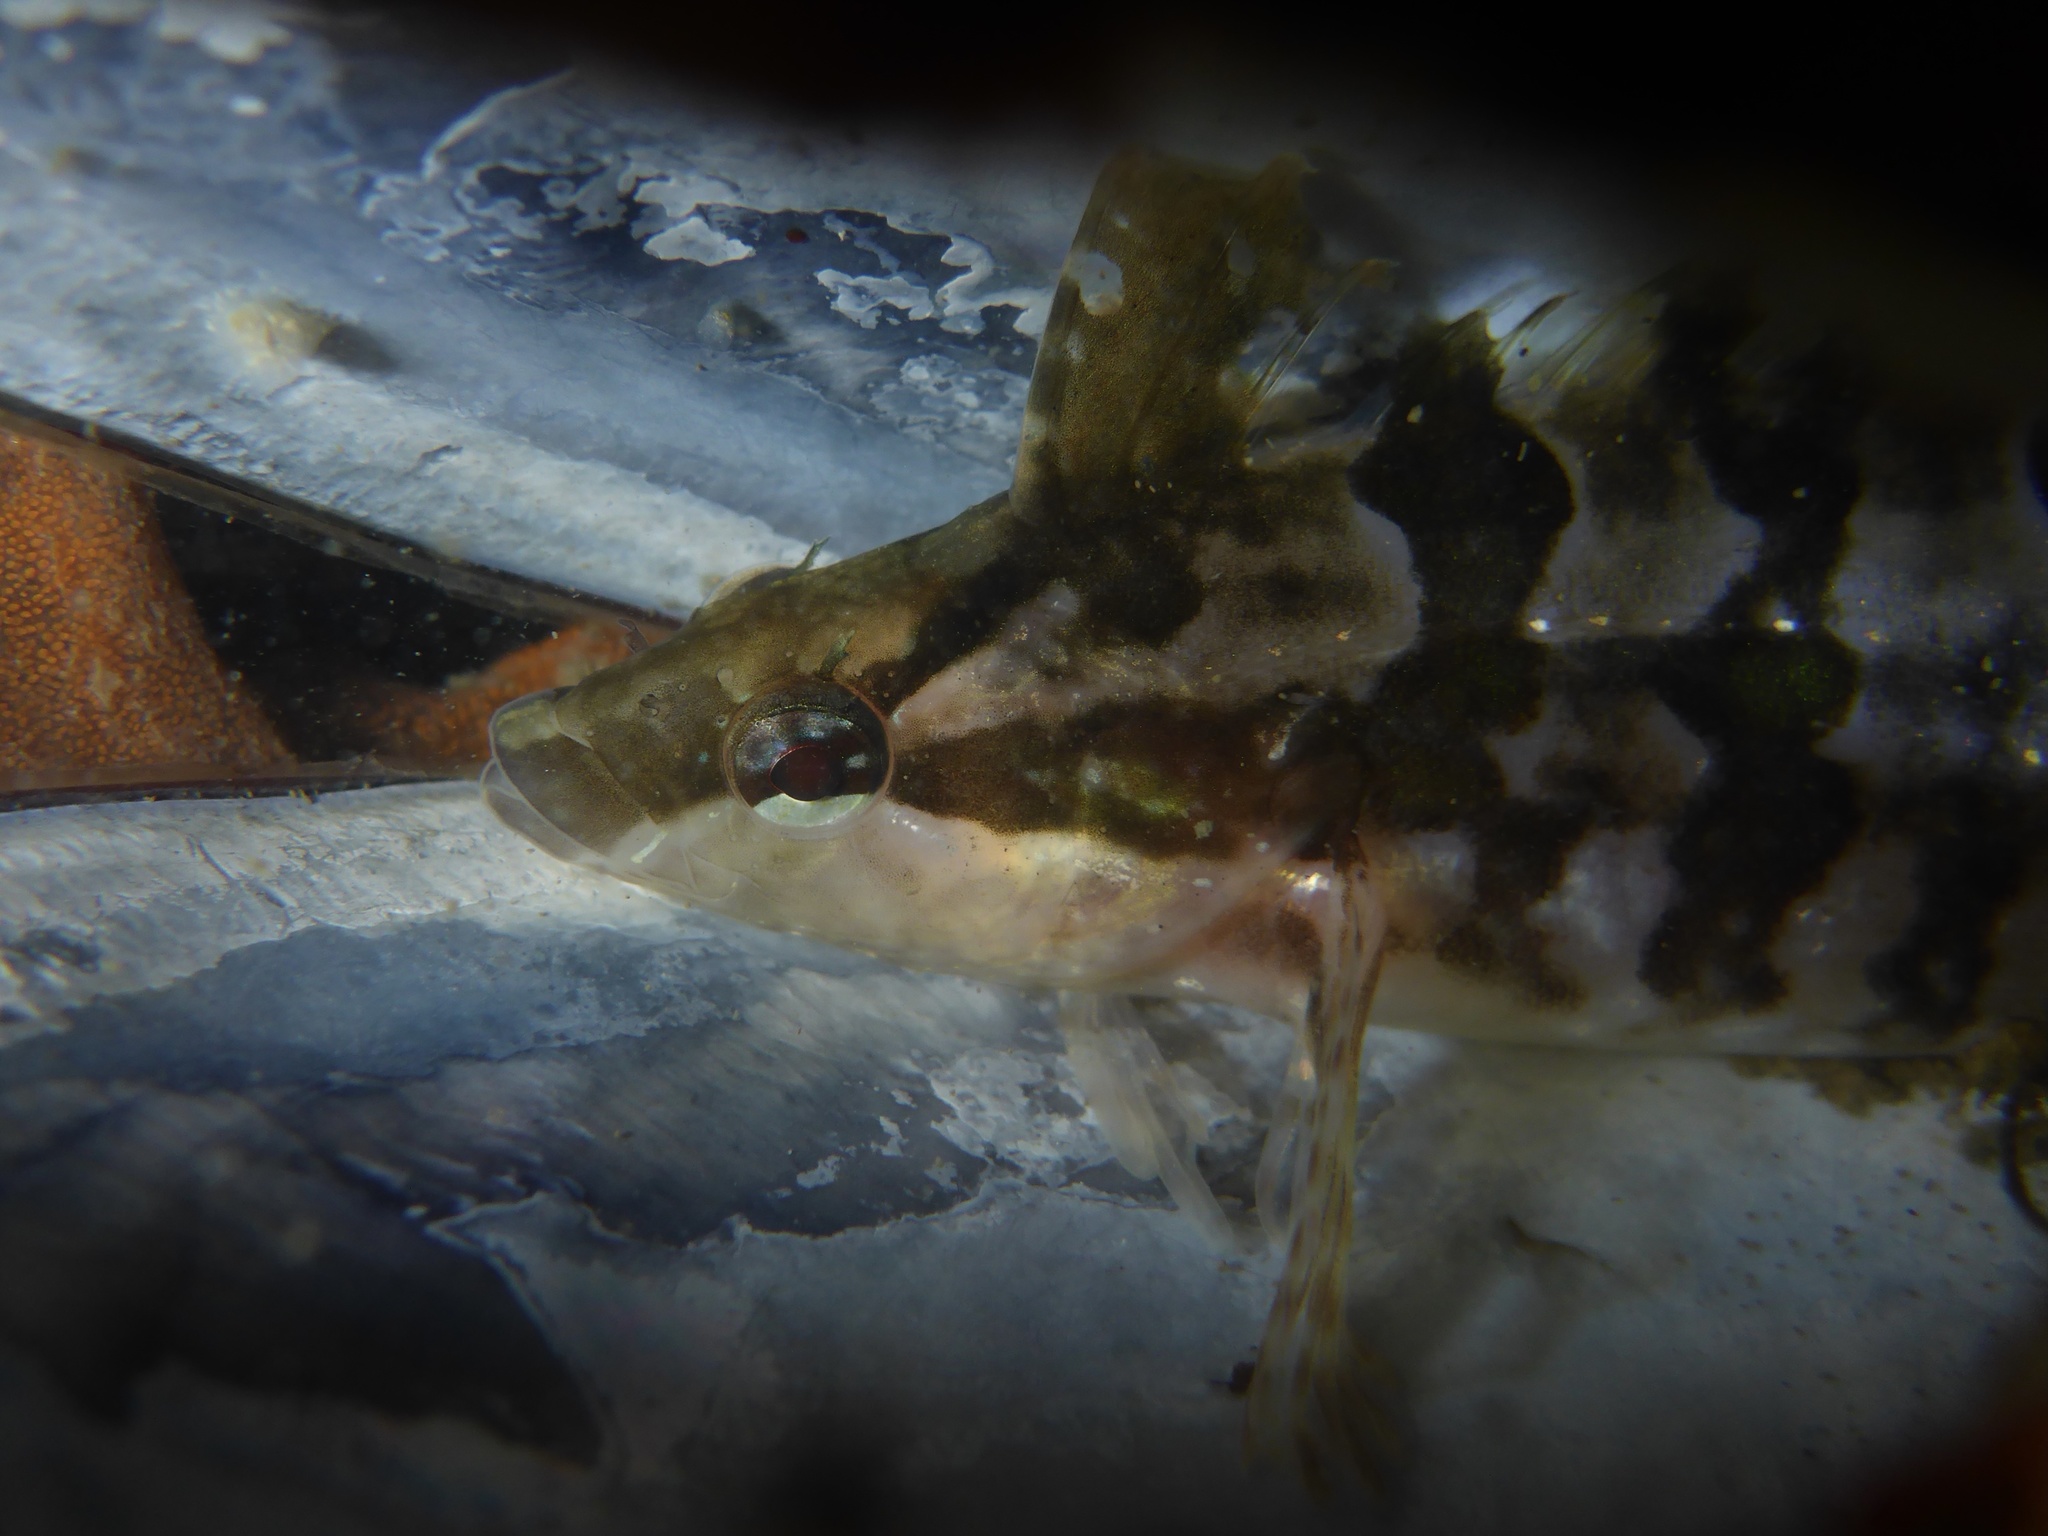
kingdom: Animalia
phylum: Chordata
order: Perciformes
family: Clinidae
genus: Gibbonsia
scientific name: Gibbonsia metzi
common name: Striped kelpfish
